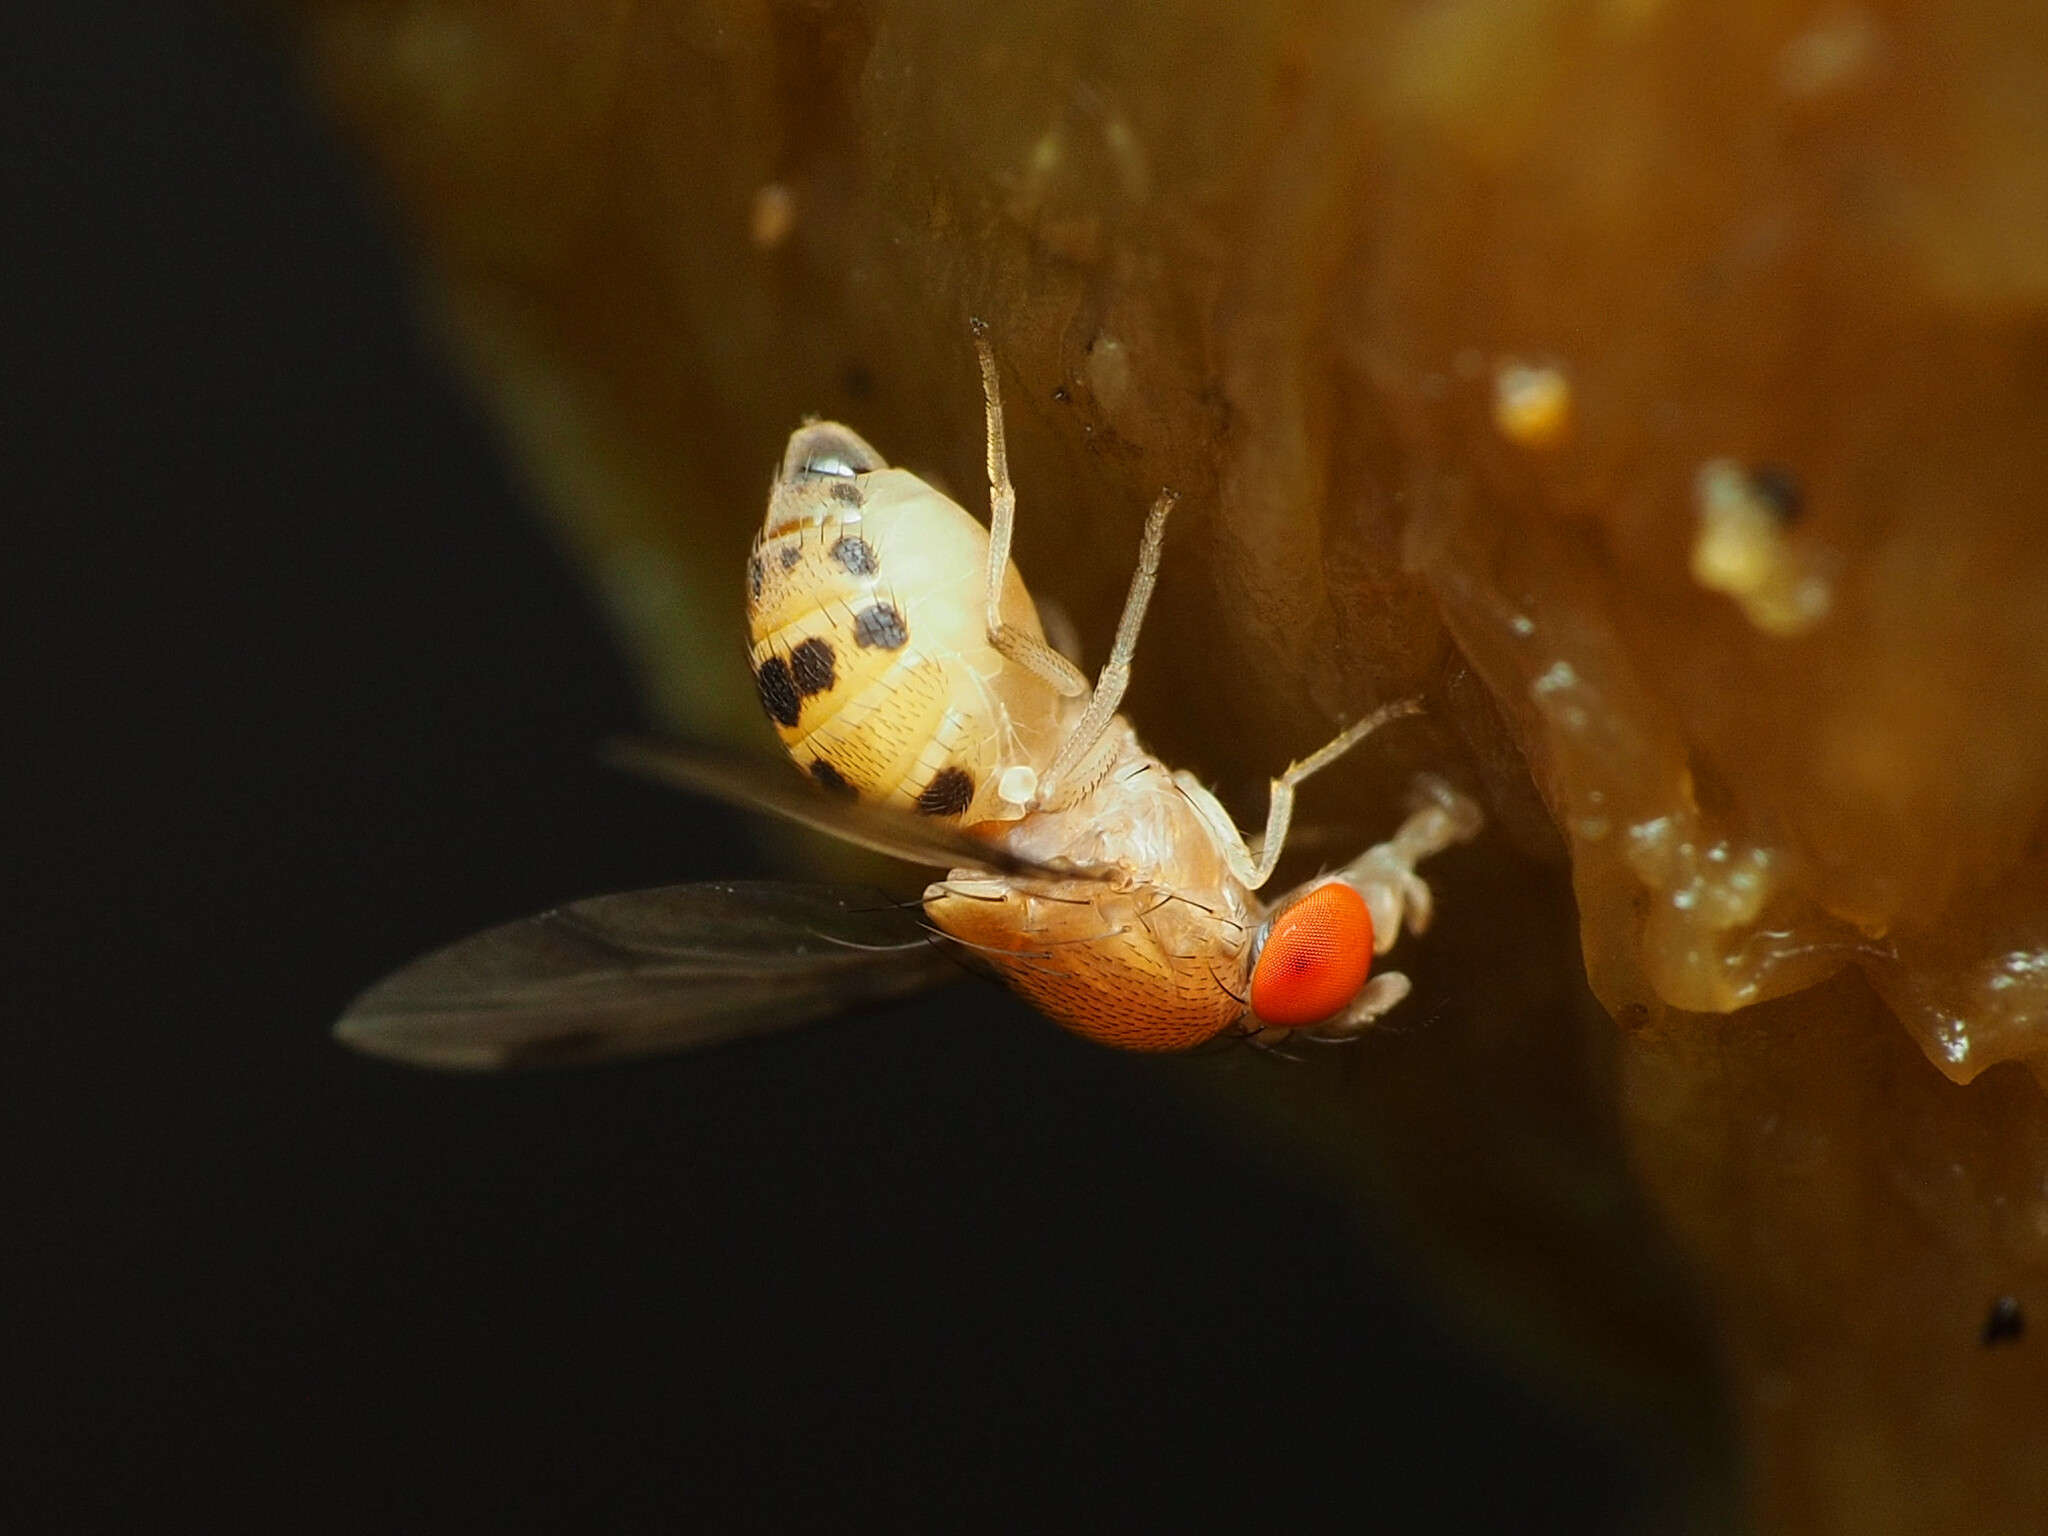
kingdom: Animalia
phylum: Arthropoda
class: Insecta
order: Diptera
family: Drosophilidae
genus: Leucophenga
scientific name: Leucophenga varia
